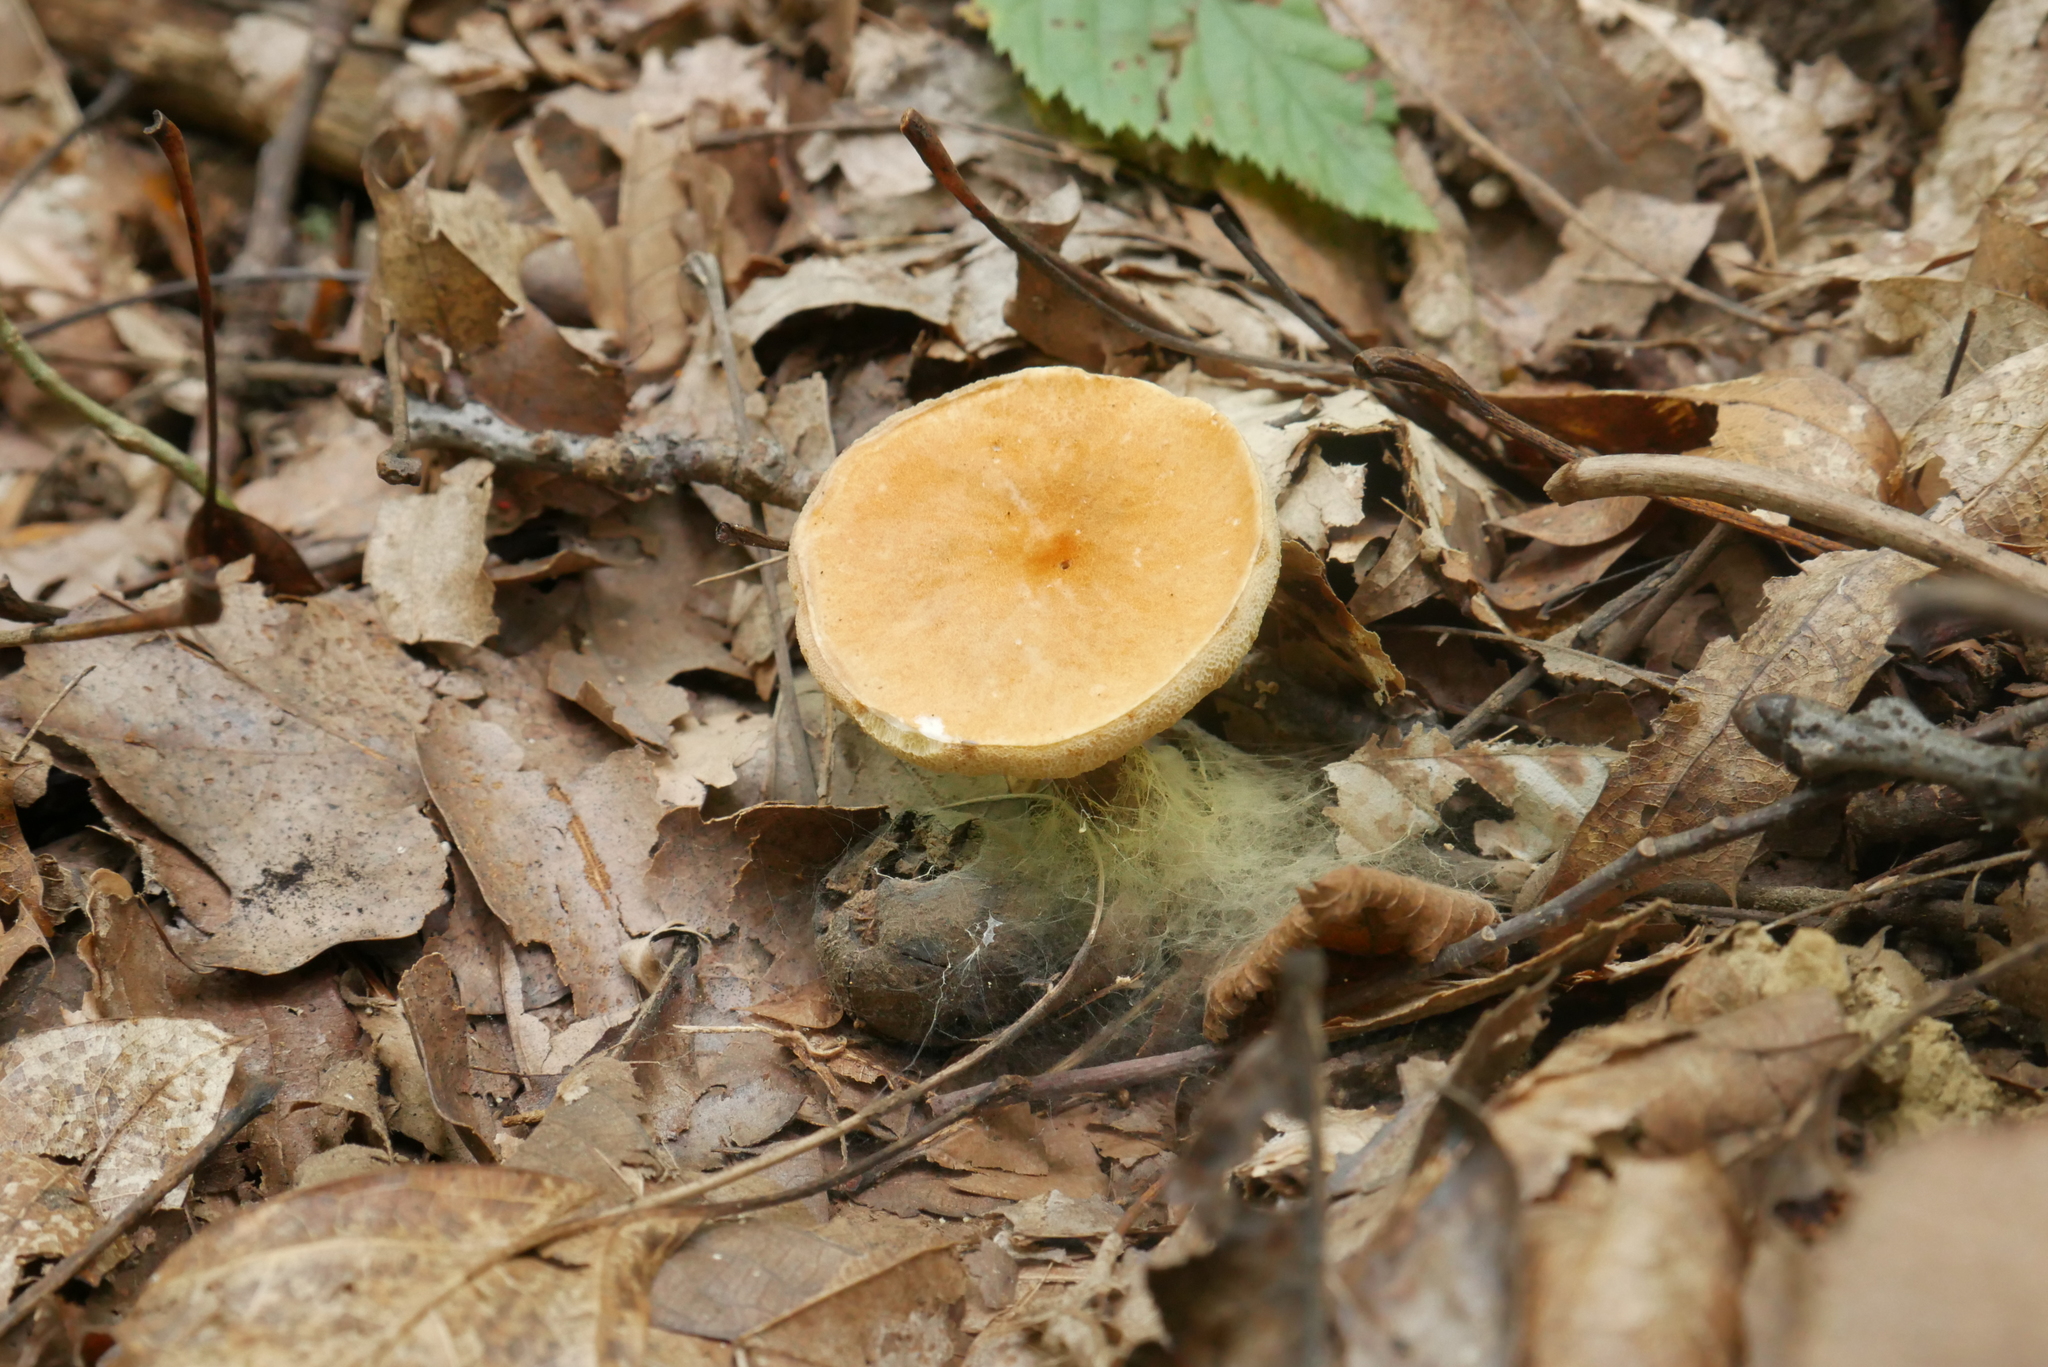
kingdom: Fungi
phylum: Basidiomycota
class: Agaricomycetes
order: Boletales
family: Gyroporaceae
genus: Gyroporus
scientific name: Gyroporus castaneus
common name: Chestnut bolete
